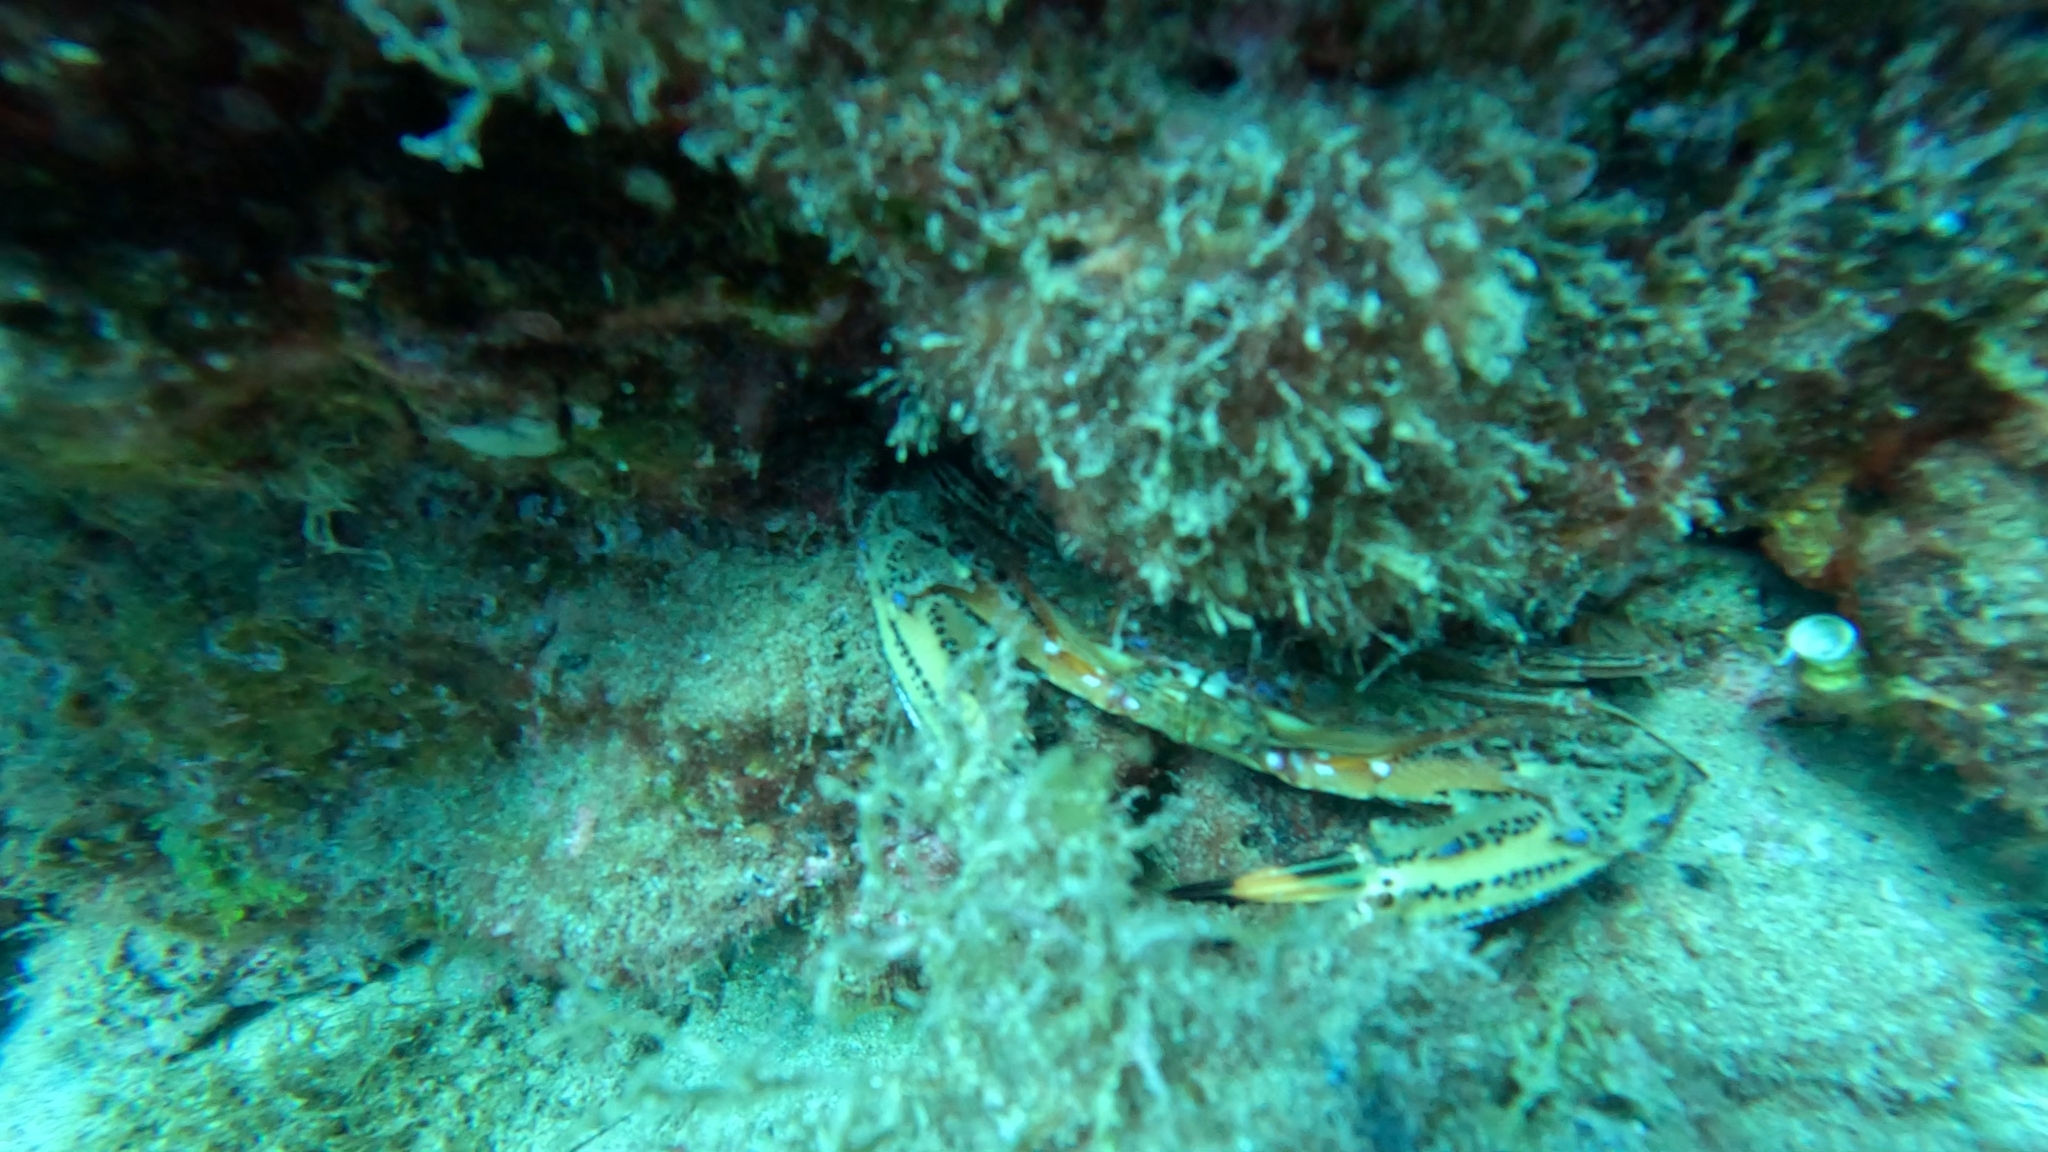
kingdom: Animalia
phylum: Arthropoda
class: Malacostraca
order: Decapoda
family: Portunidae
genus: Cronius
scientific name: Cronius ruber
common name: Red crab
